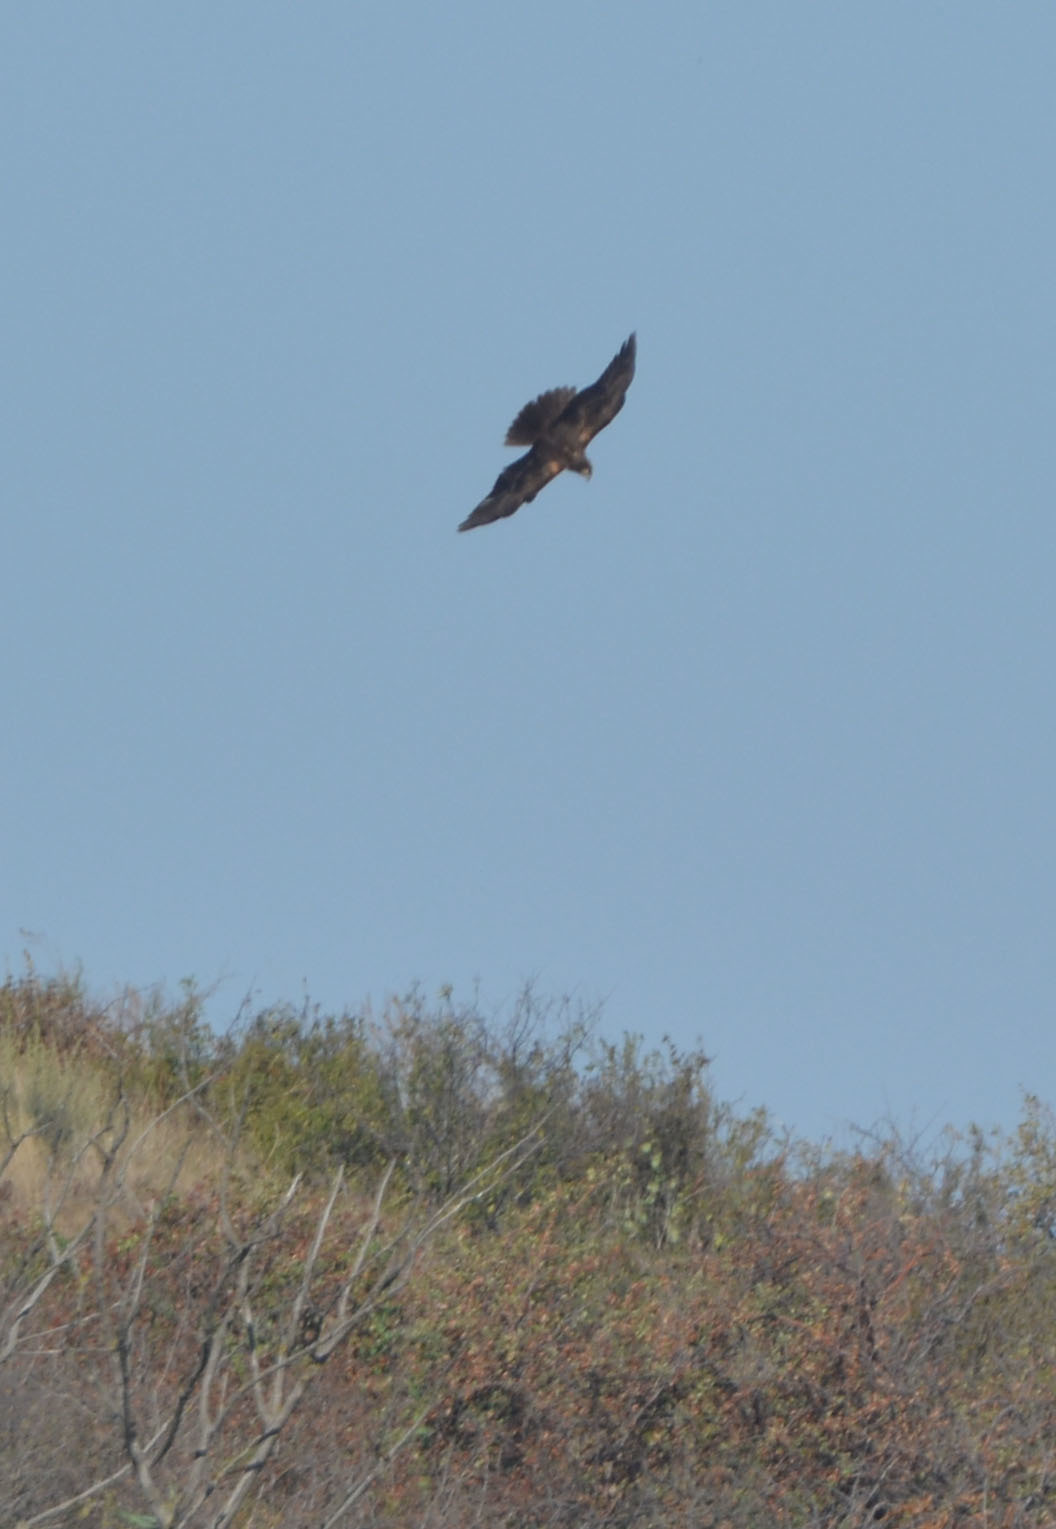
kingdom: Animalia
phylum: Chordata
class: Aves
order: Accipitriformes
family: Accipitridae
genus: Circus
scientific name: Circus aeruginosus
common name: Western marsh harrier
